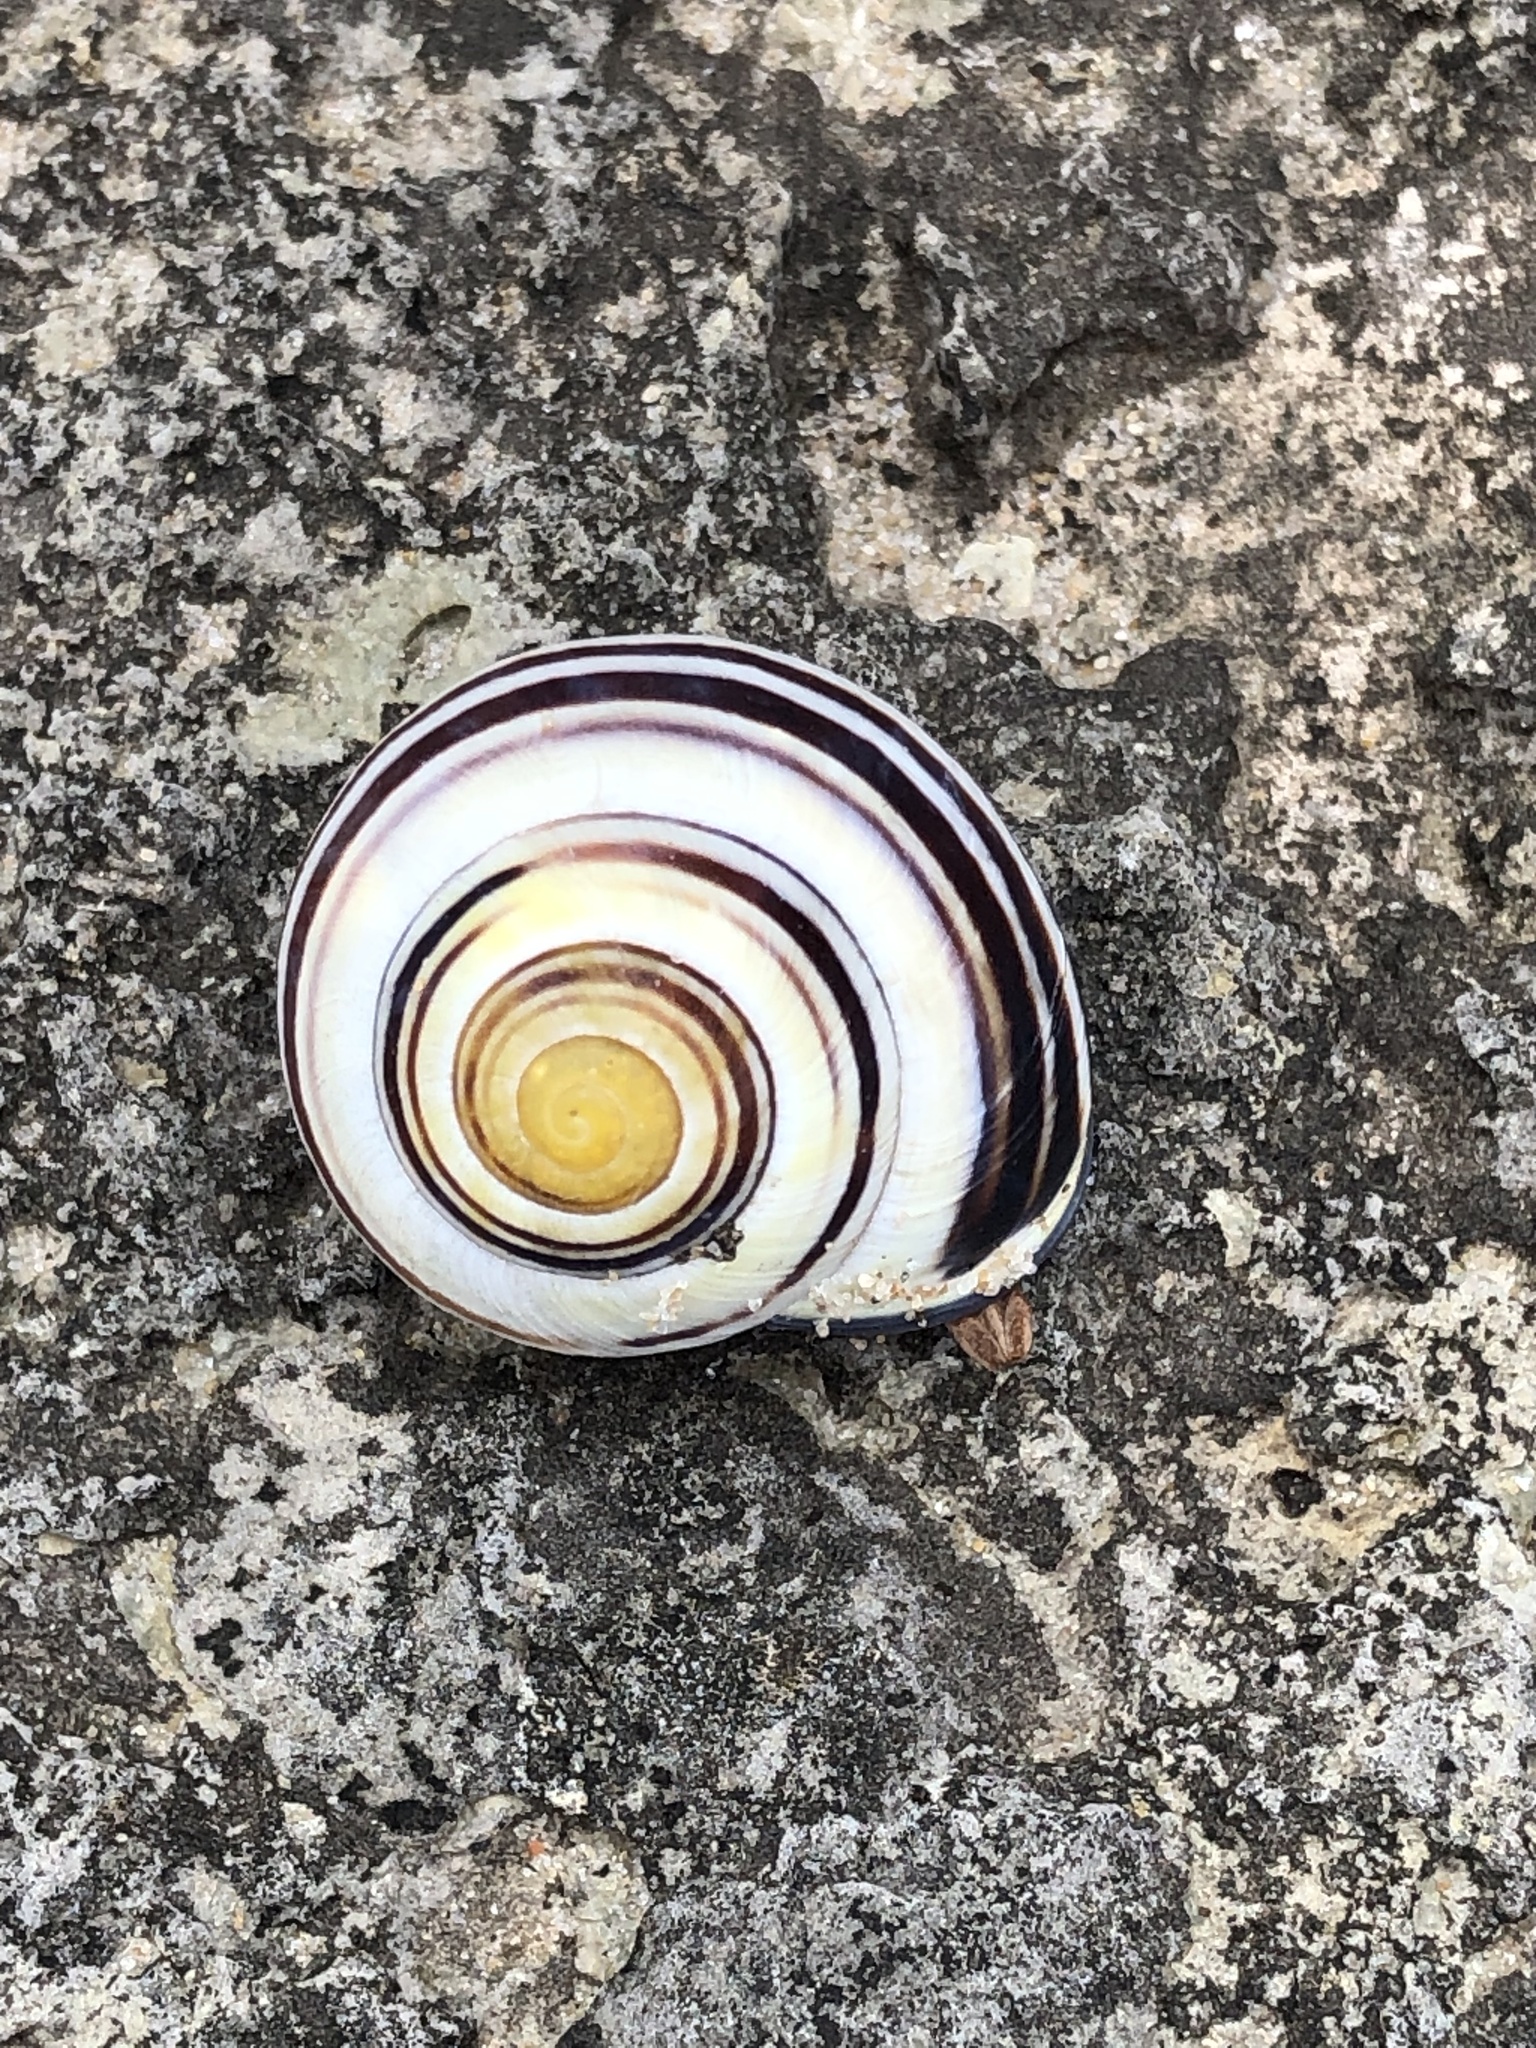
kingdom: Animalia
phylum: Mollusca
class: Gastropoda
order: Stylommatophora
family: Helicidae
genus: Cepaea
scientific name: Cepaea nemoralis
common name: Grovesnail
